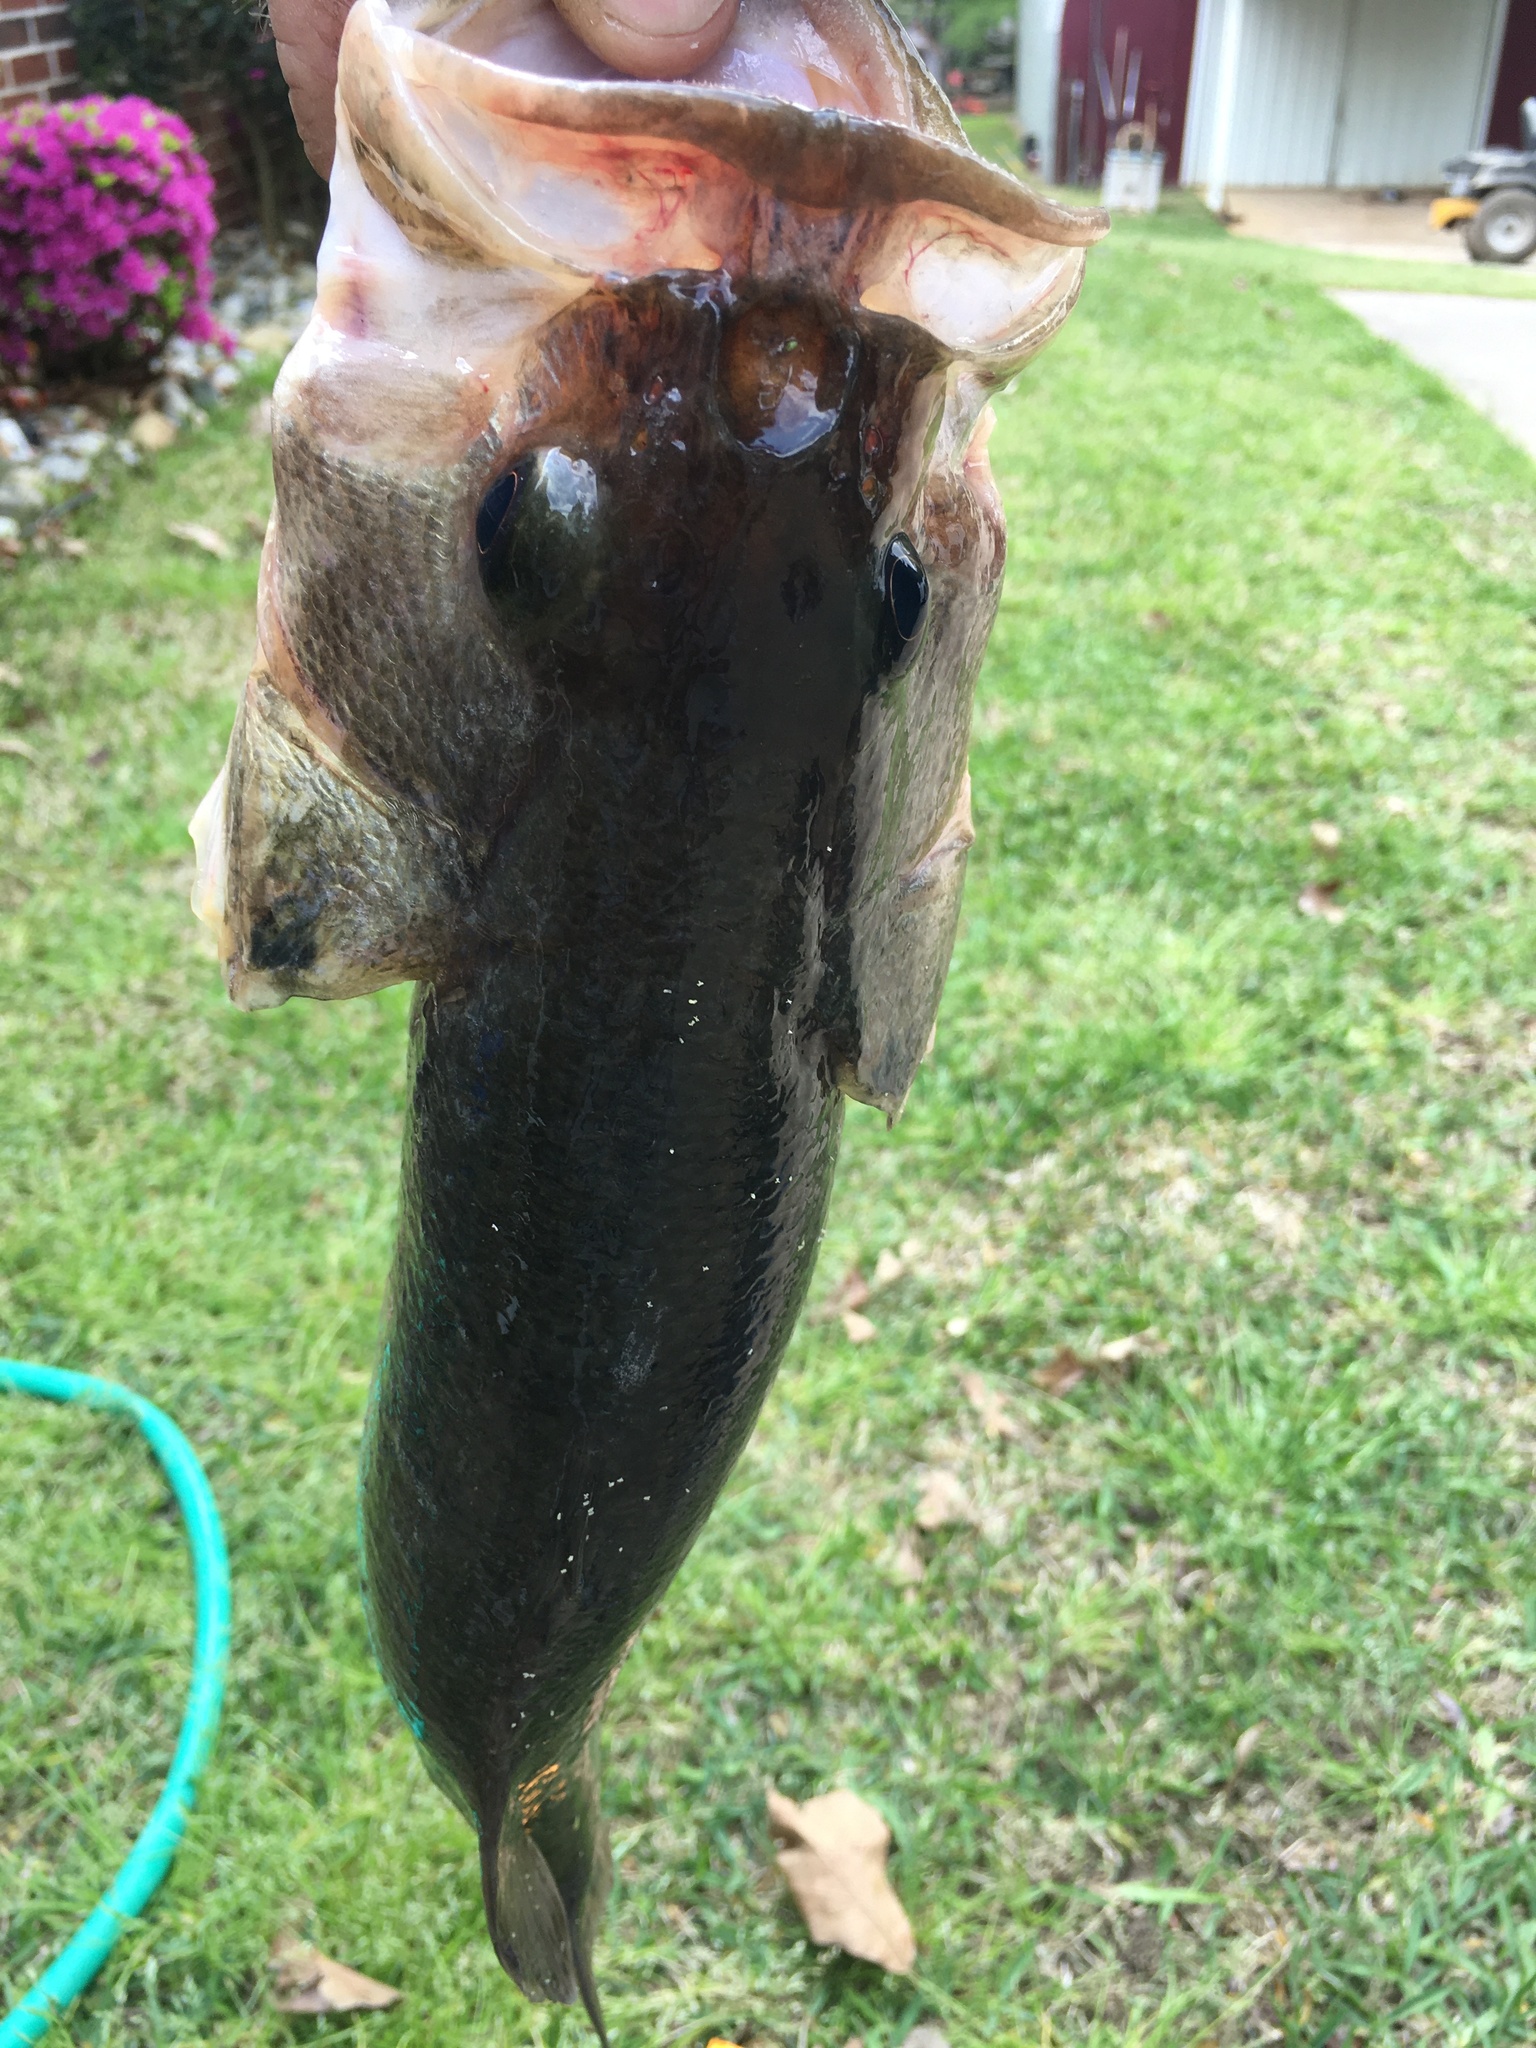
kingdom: Animalia
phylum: Chordata
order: Perciformes
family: Centrarchidae
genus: Micropterus
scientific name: Micropterus
